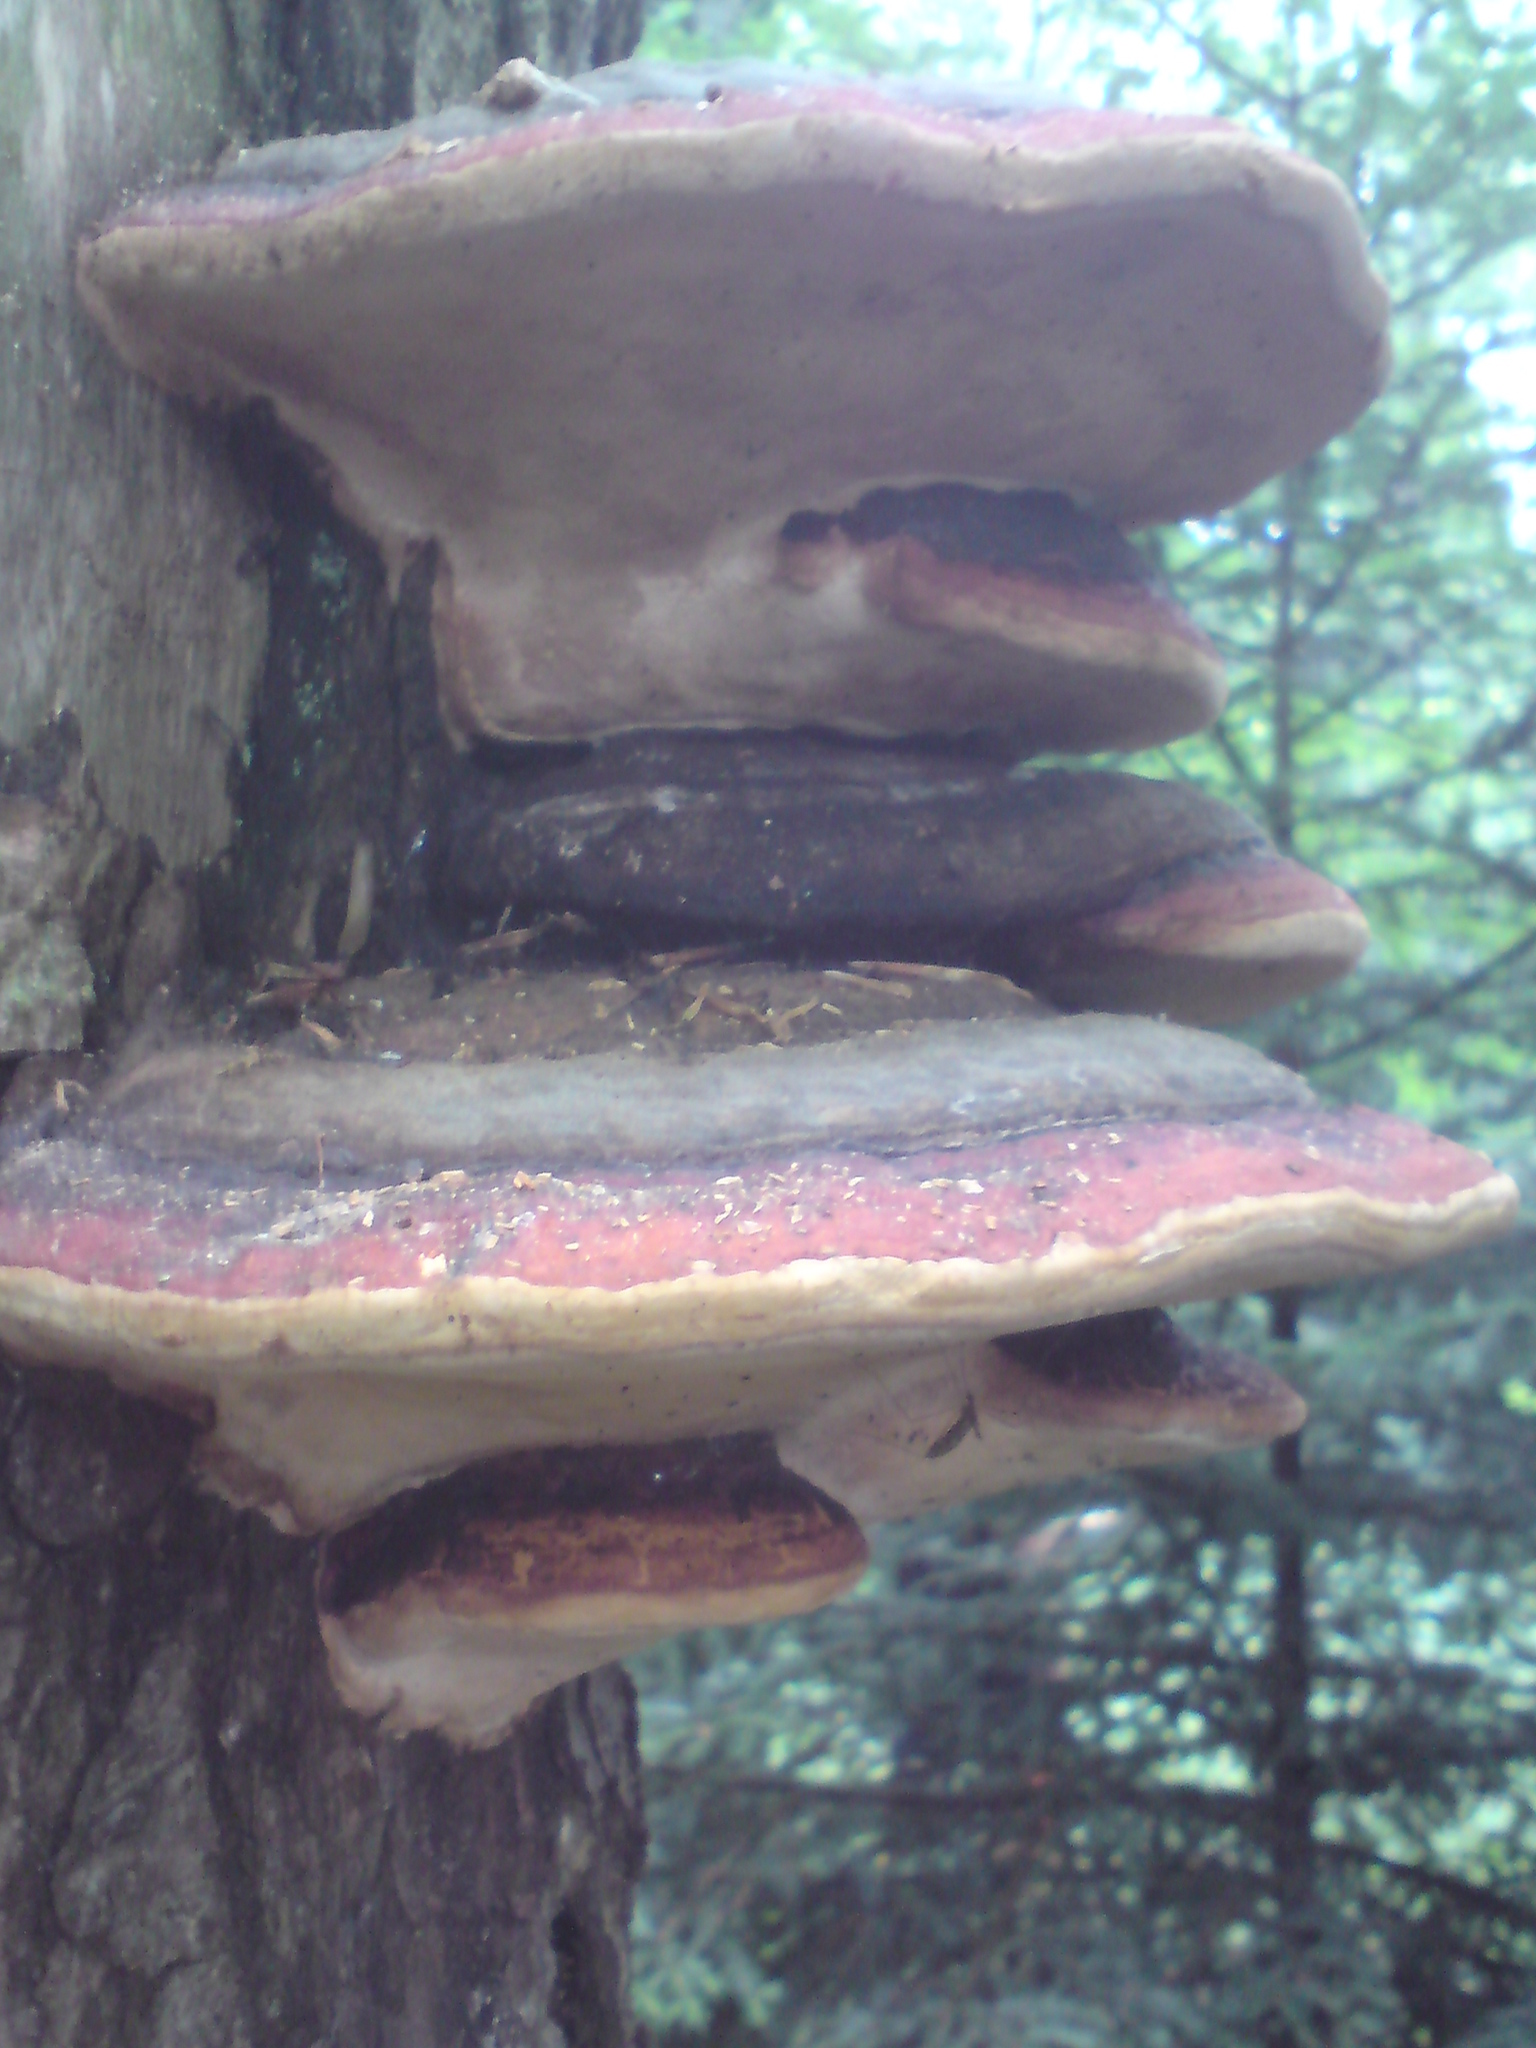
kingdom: Fungi
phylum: Basidiomycota
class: Agaricomycetes
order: Polyporales
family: Fomitopsidaceae
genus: Fomitopsis
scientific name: Fomitopsis pinicola
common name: Red-belted bracket
